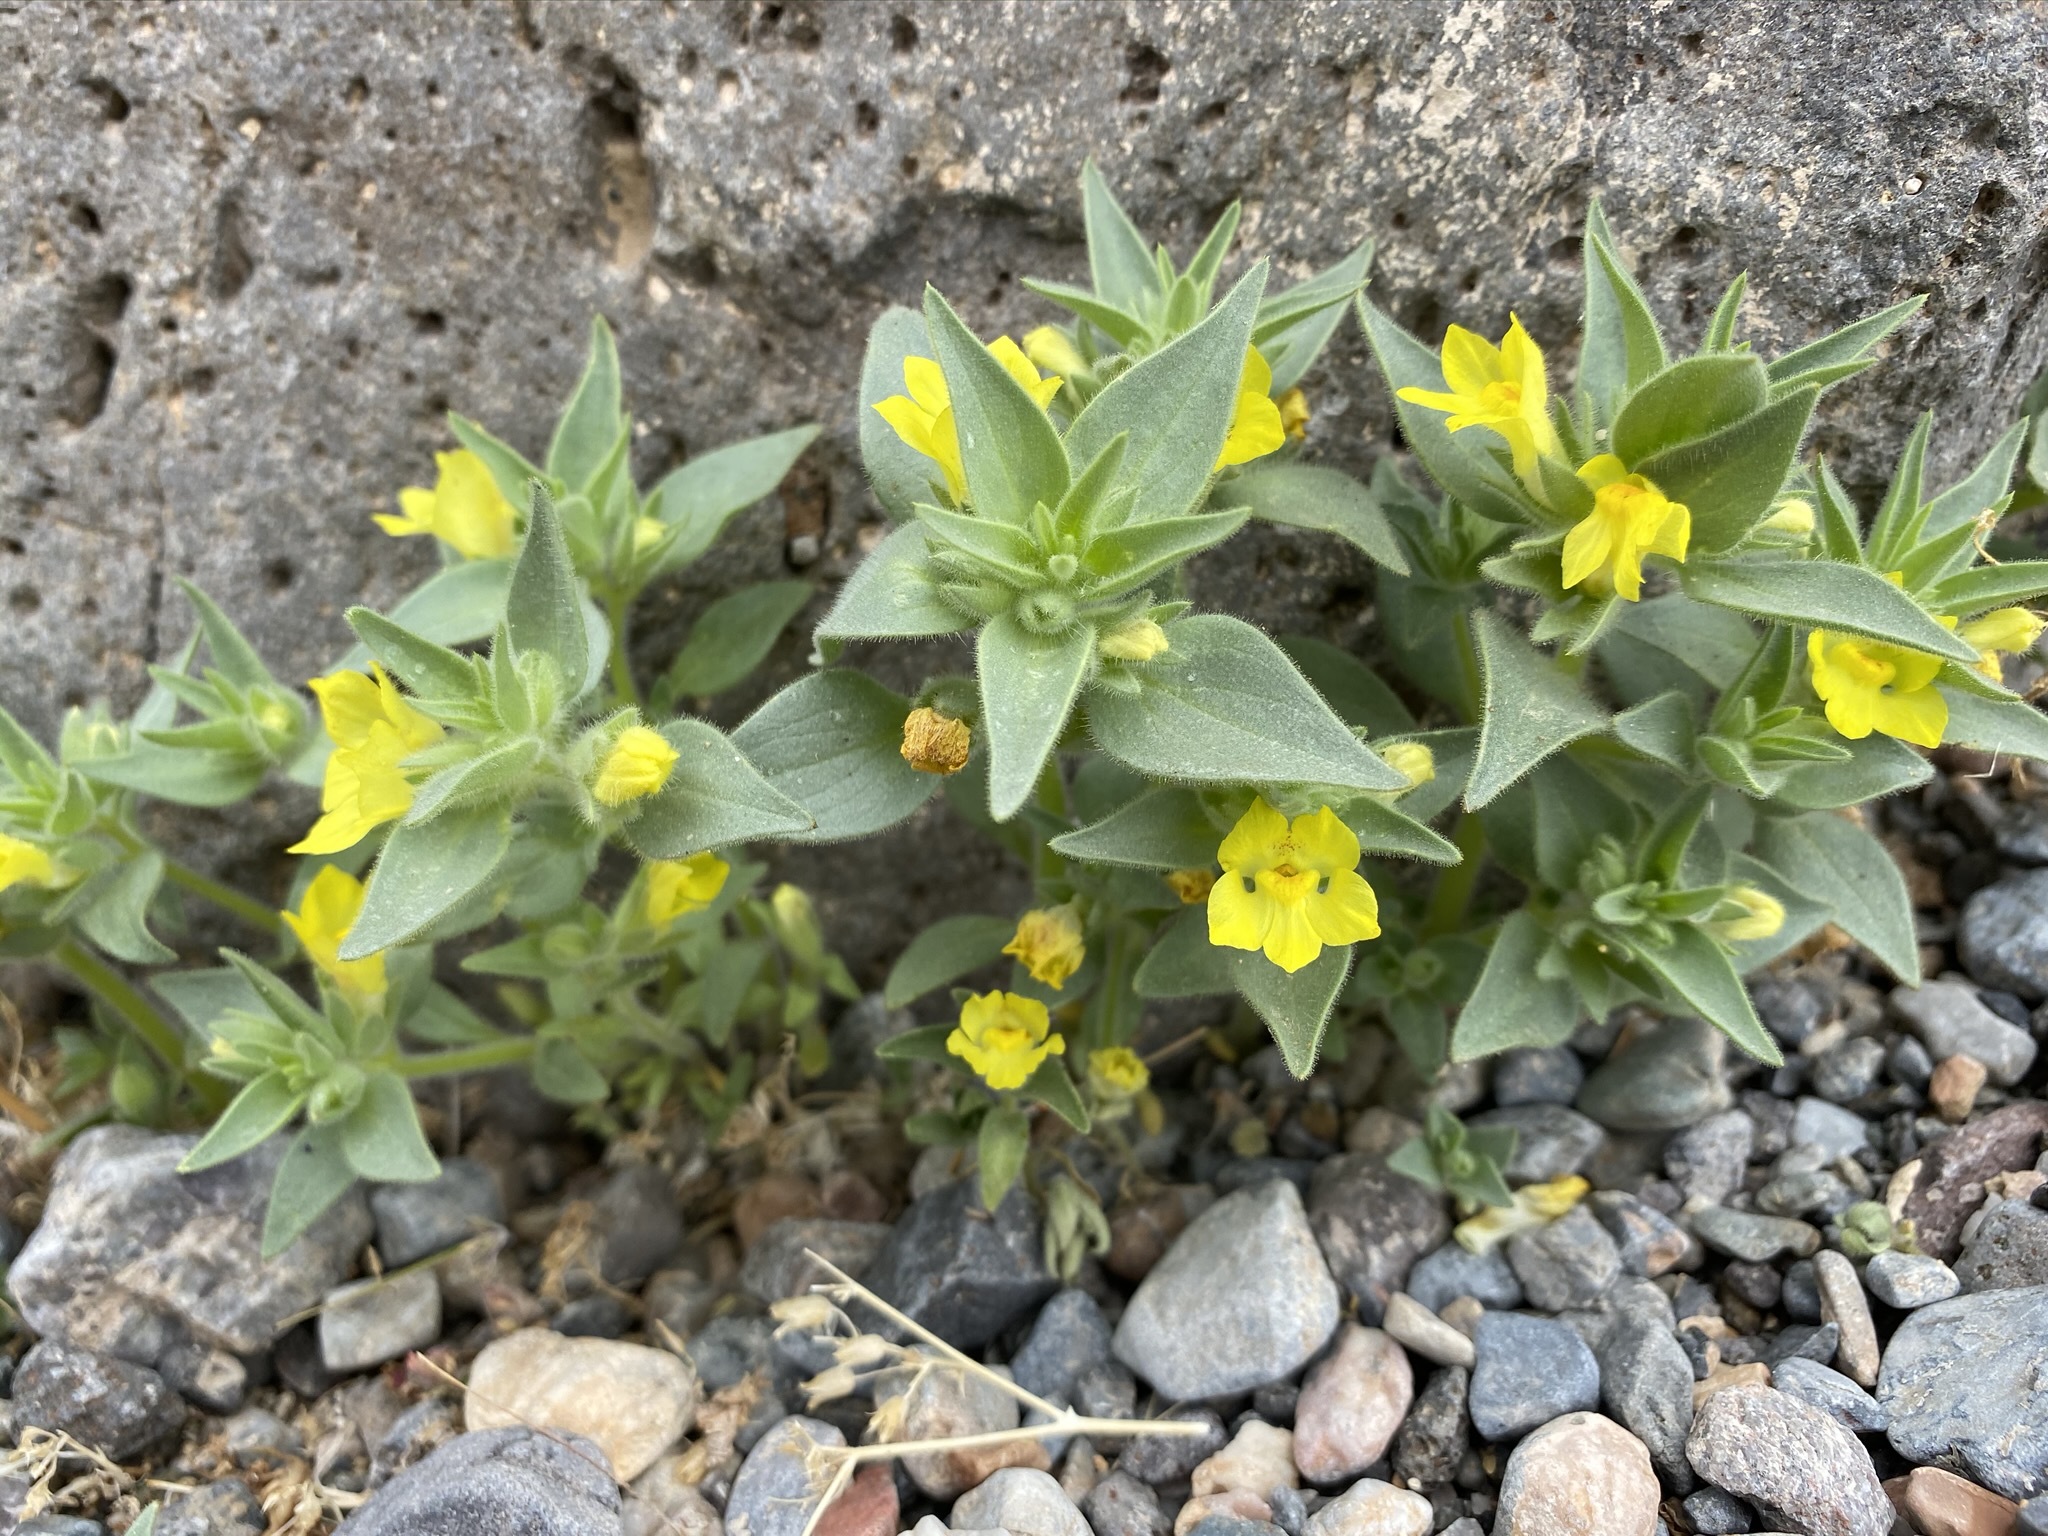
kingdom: Plantae
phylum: Tracheophyta
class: Magnoliopsida
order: Lamiales
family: Plantaginaceae
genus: Mohavea
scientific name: Mohavea breviflora
